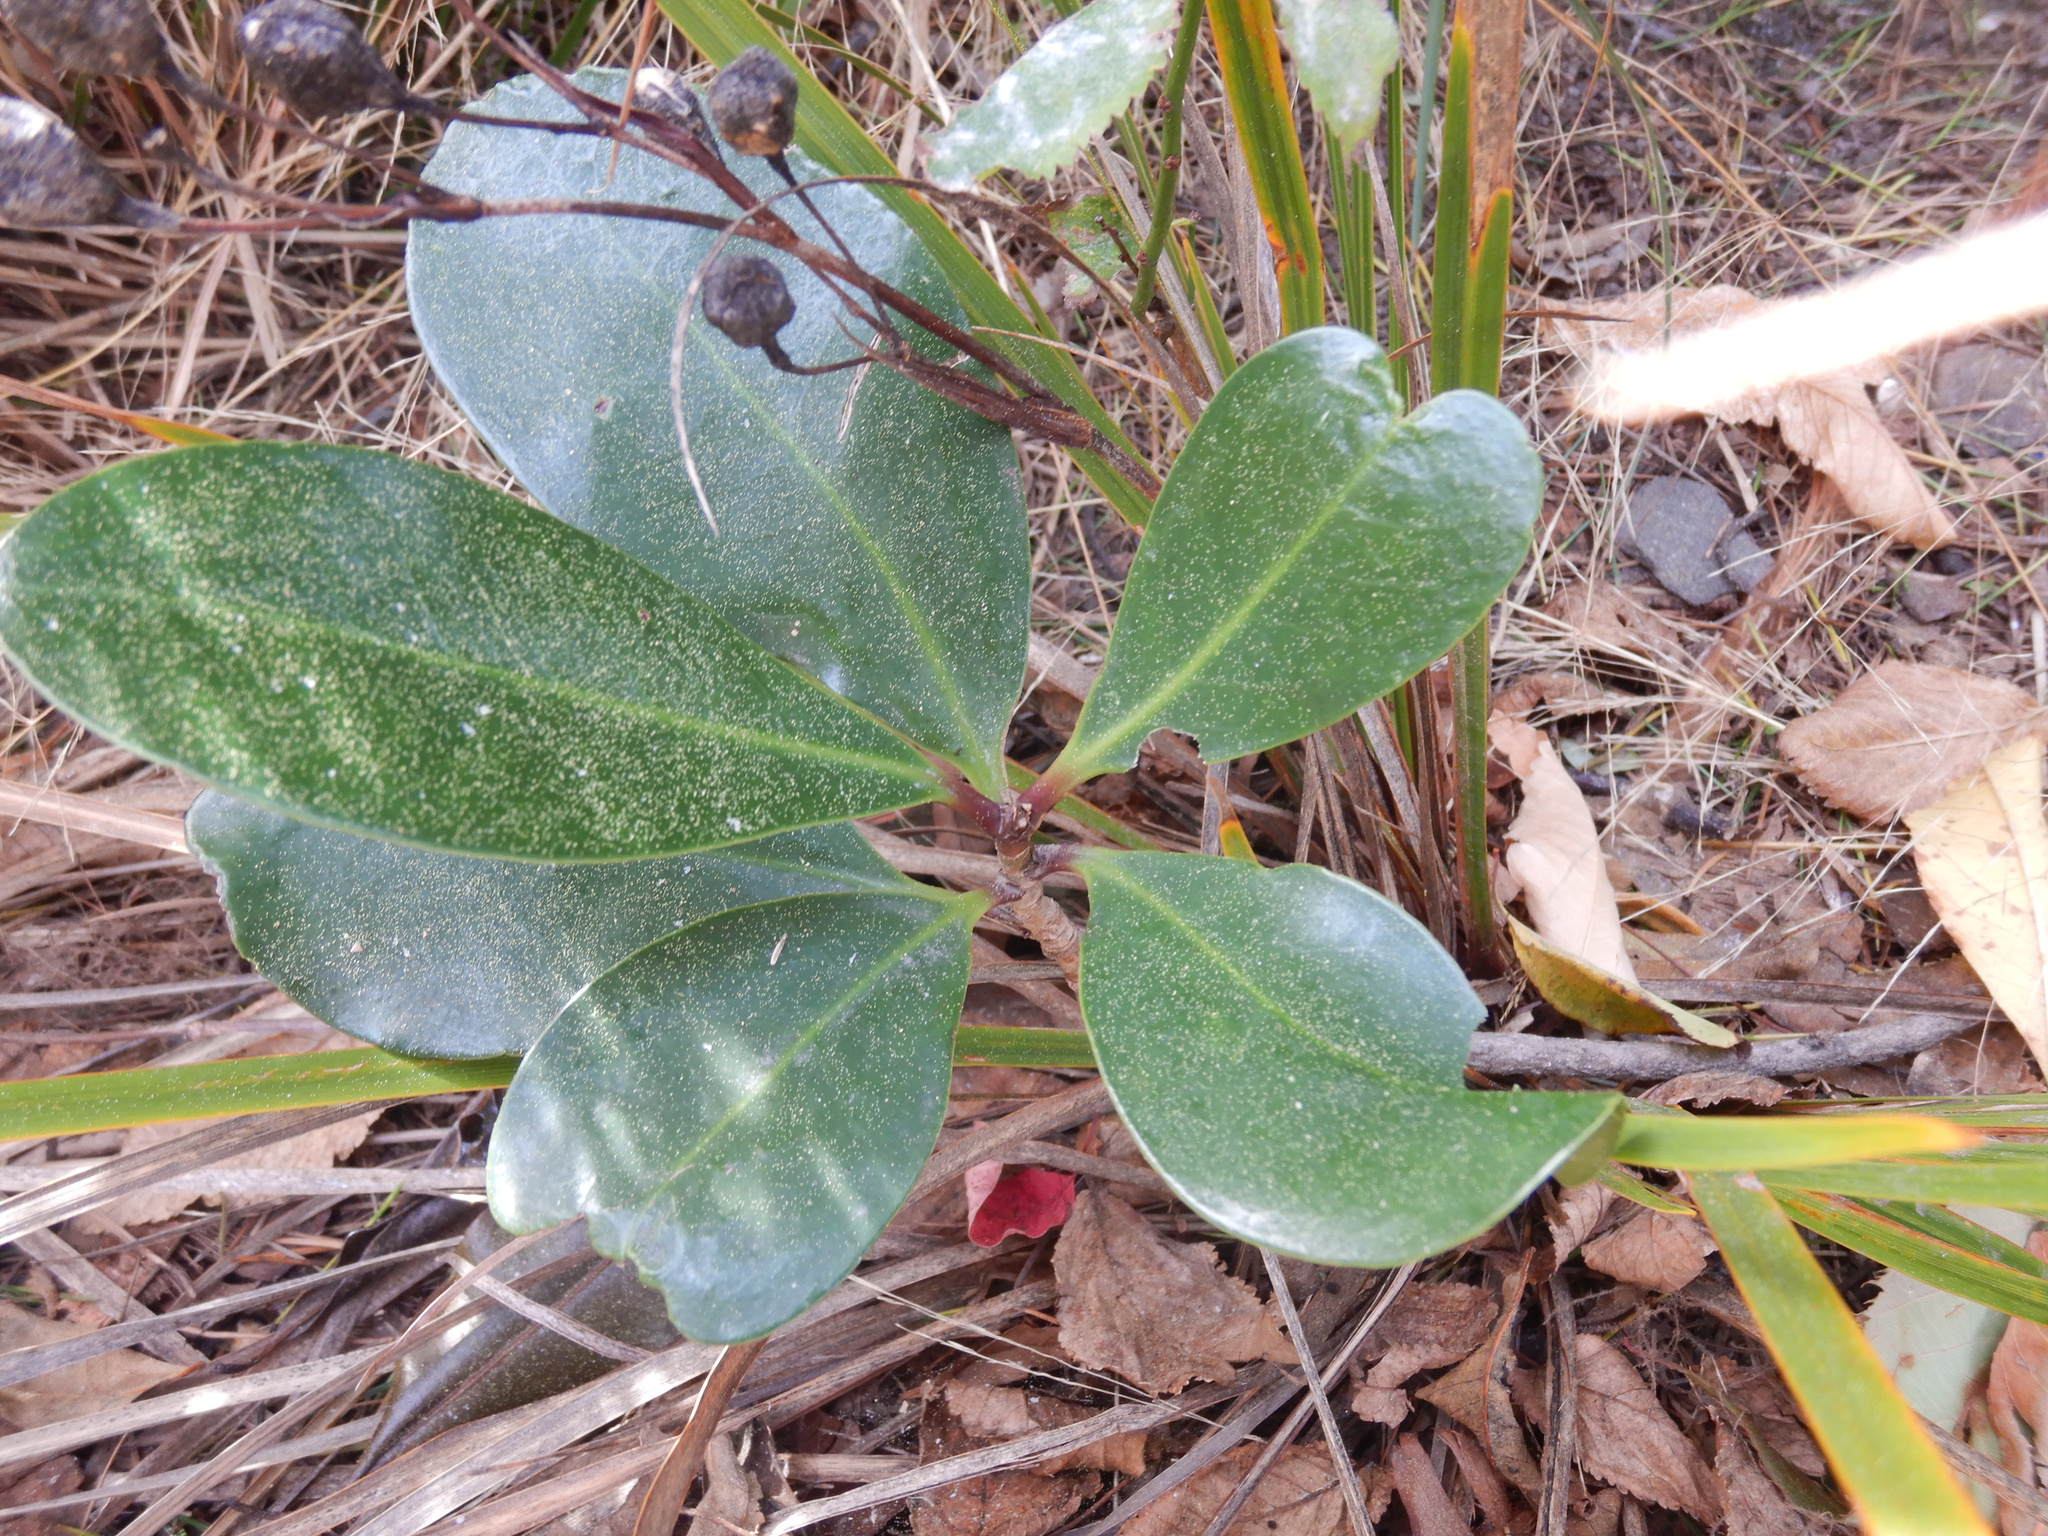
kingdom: Plantae
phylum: Tracheophyta
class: Magnoliopsida
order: Cucurbitales
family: Corynocarpaceae
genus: Corynocarpus
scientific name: Corynocarpus laevigatus
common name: New zealand laurel
